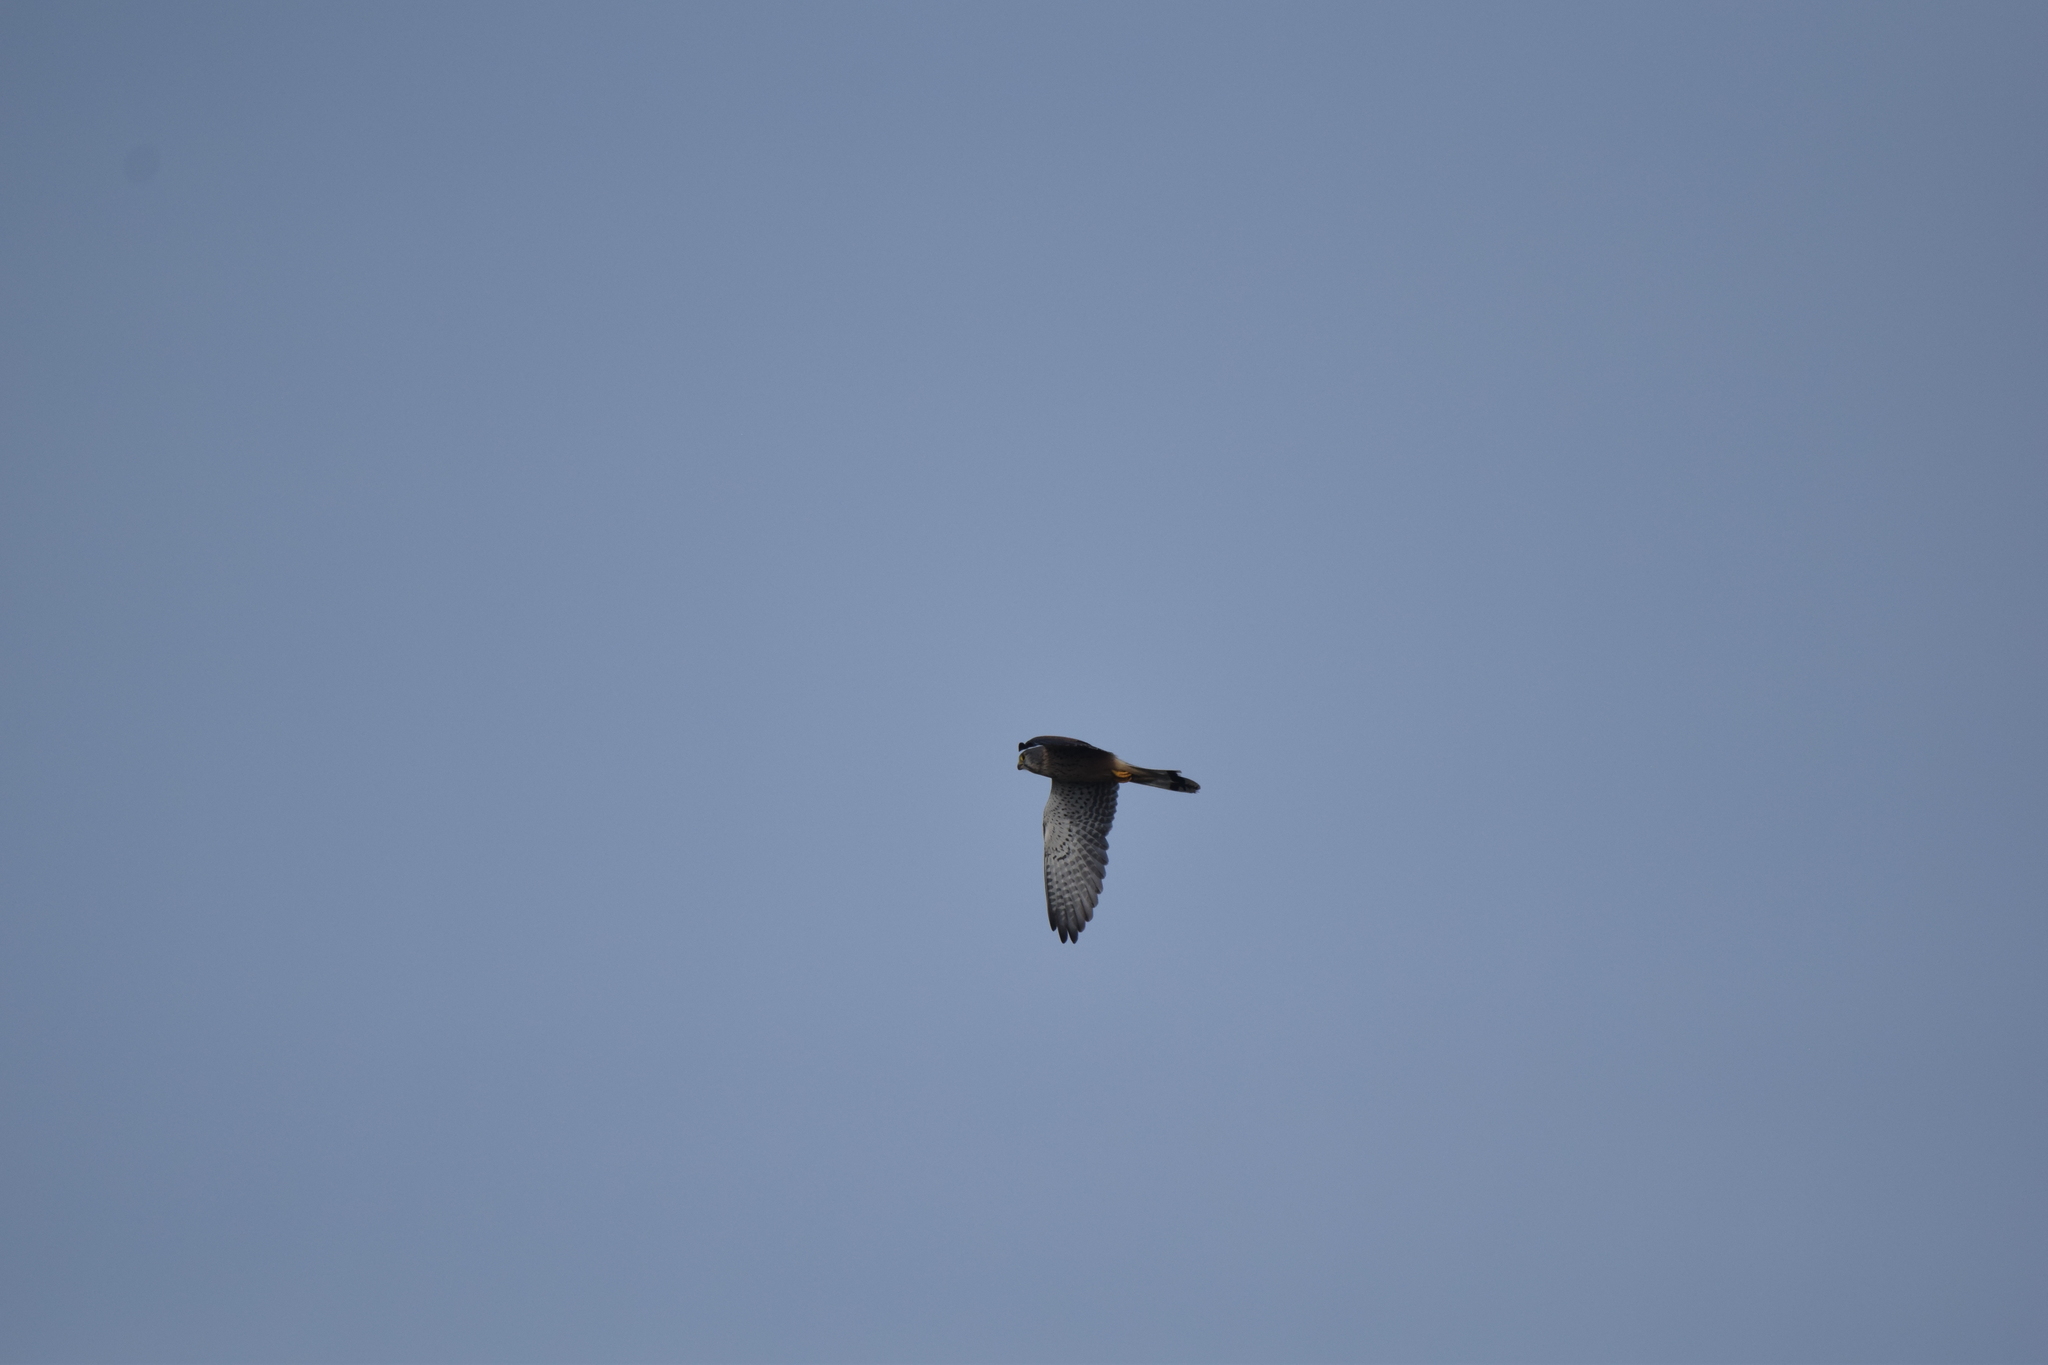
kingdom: Animalia
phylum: Chordata
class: Aves
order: Falconiformes
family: Falconidae
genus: Falco
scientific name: Falco tinnunculus
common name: Common kestrel
